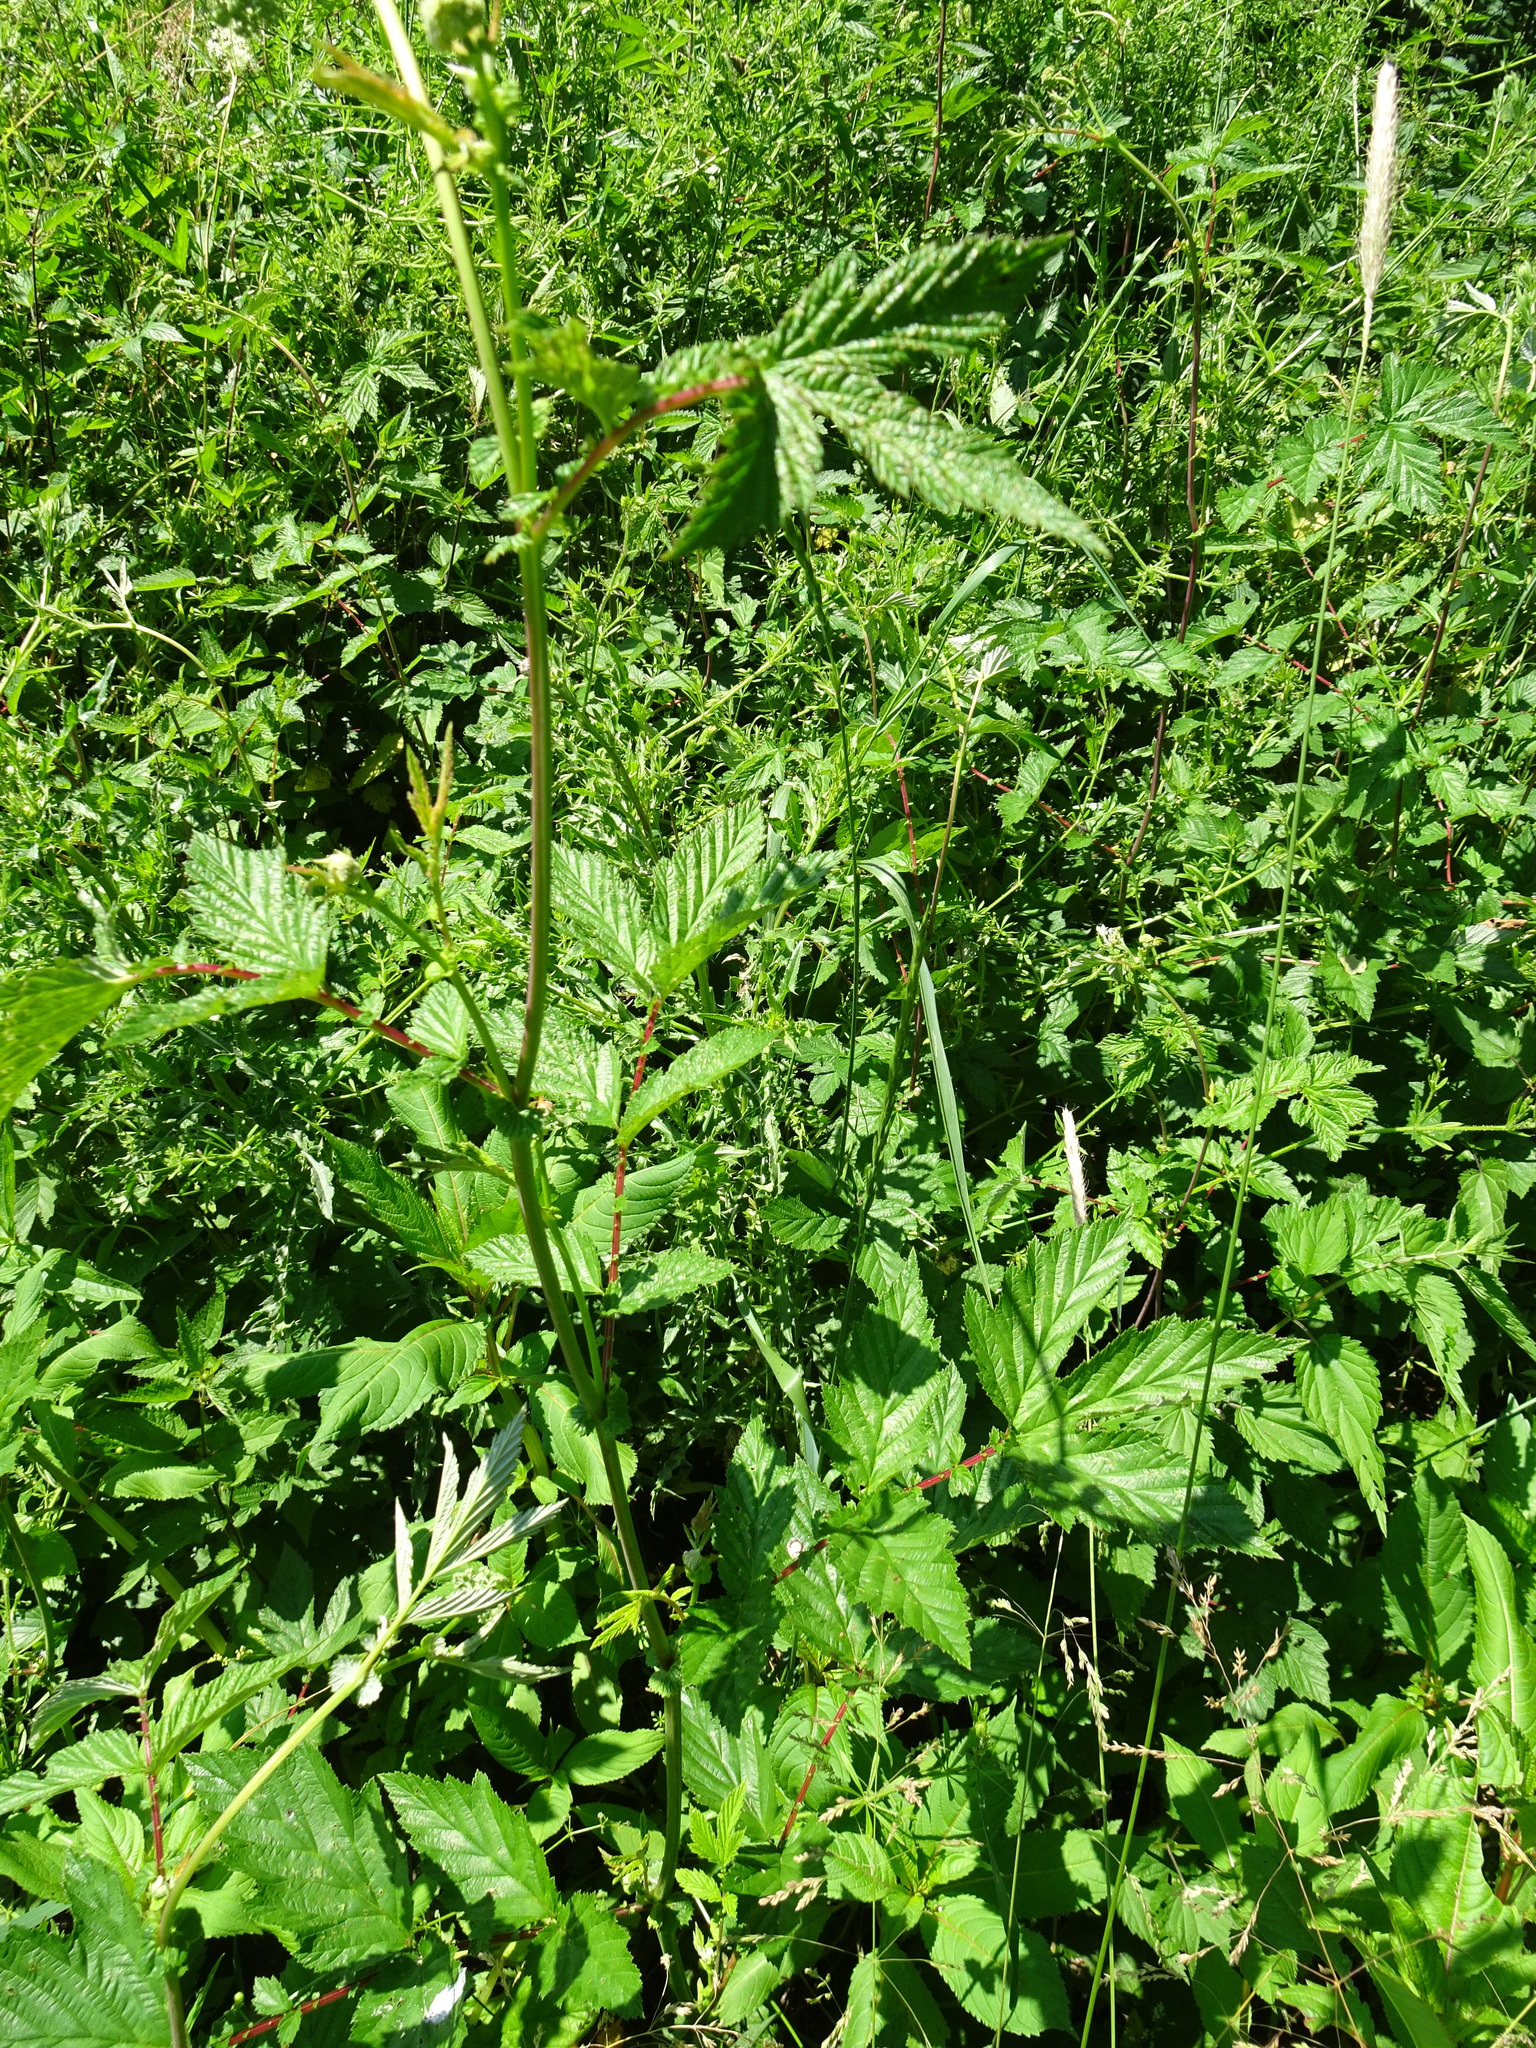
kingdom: Plantae
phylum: Tracheophyta
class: Magnoliopsida
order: Rosales
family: Rosaceae
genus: Filipendula
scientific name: Filipendula ulmaria
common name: Meadowsweet
